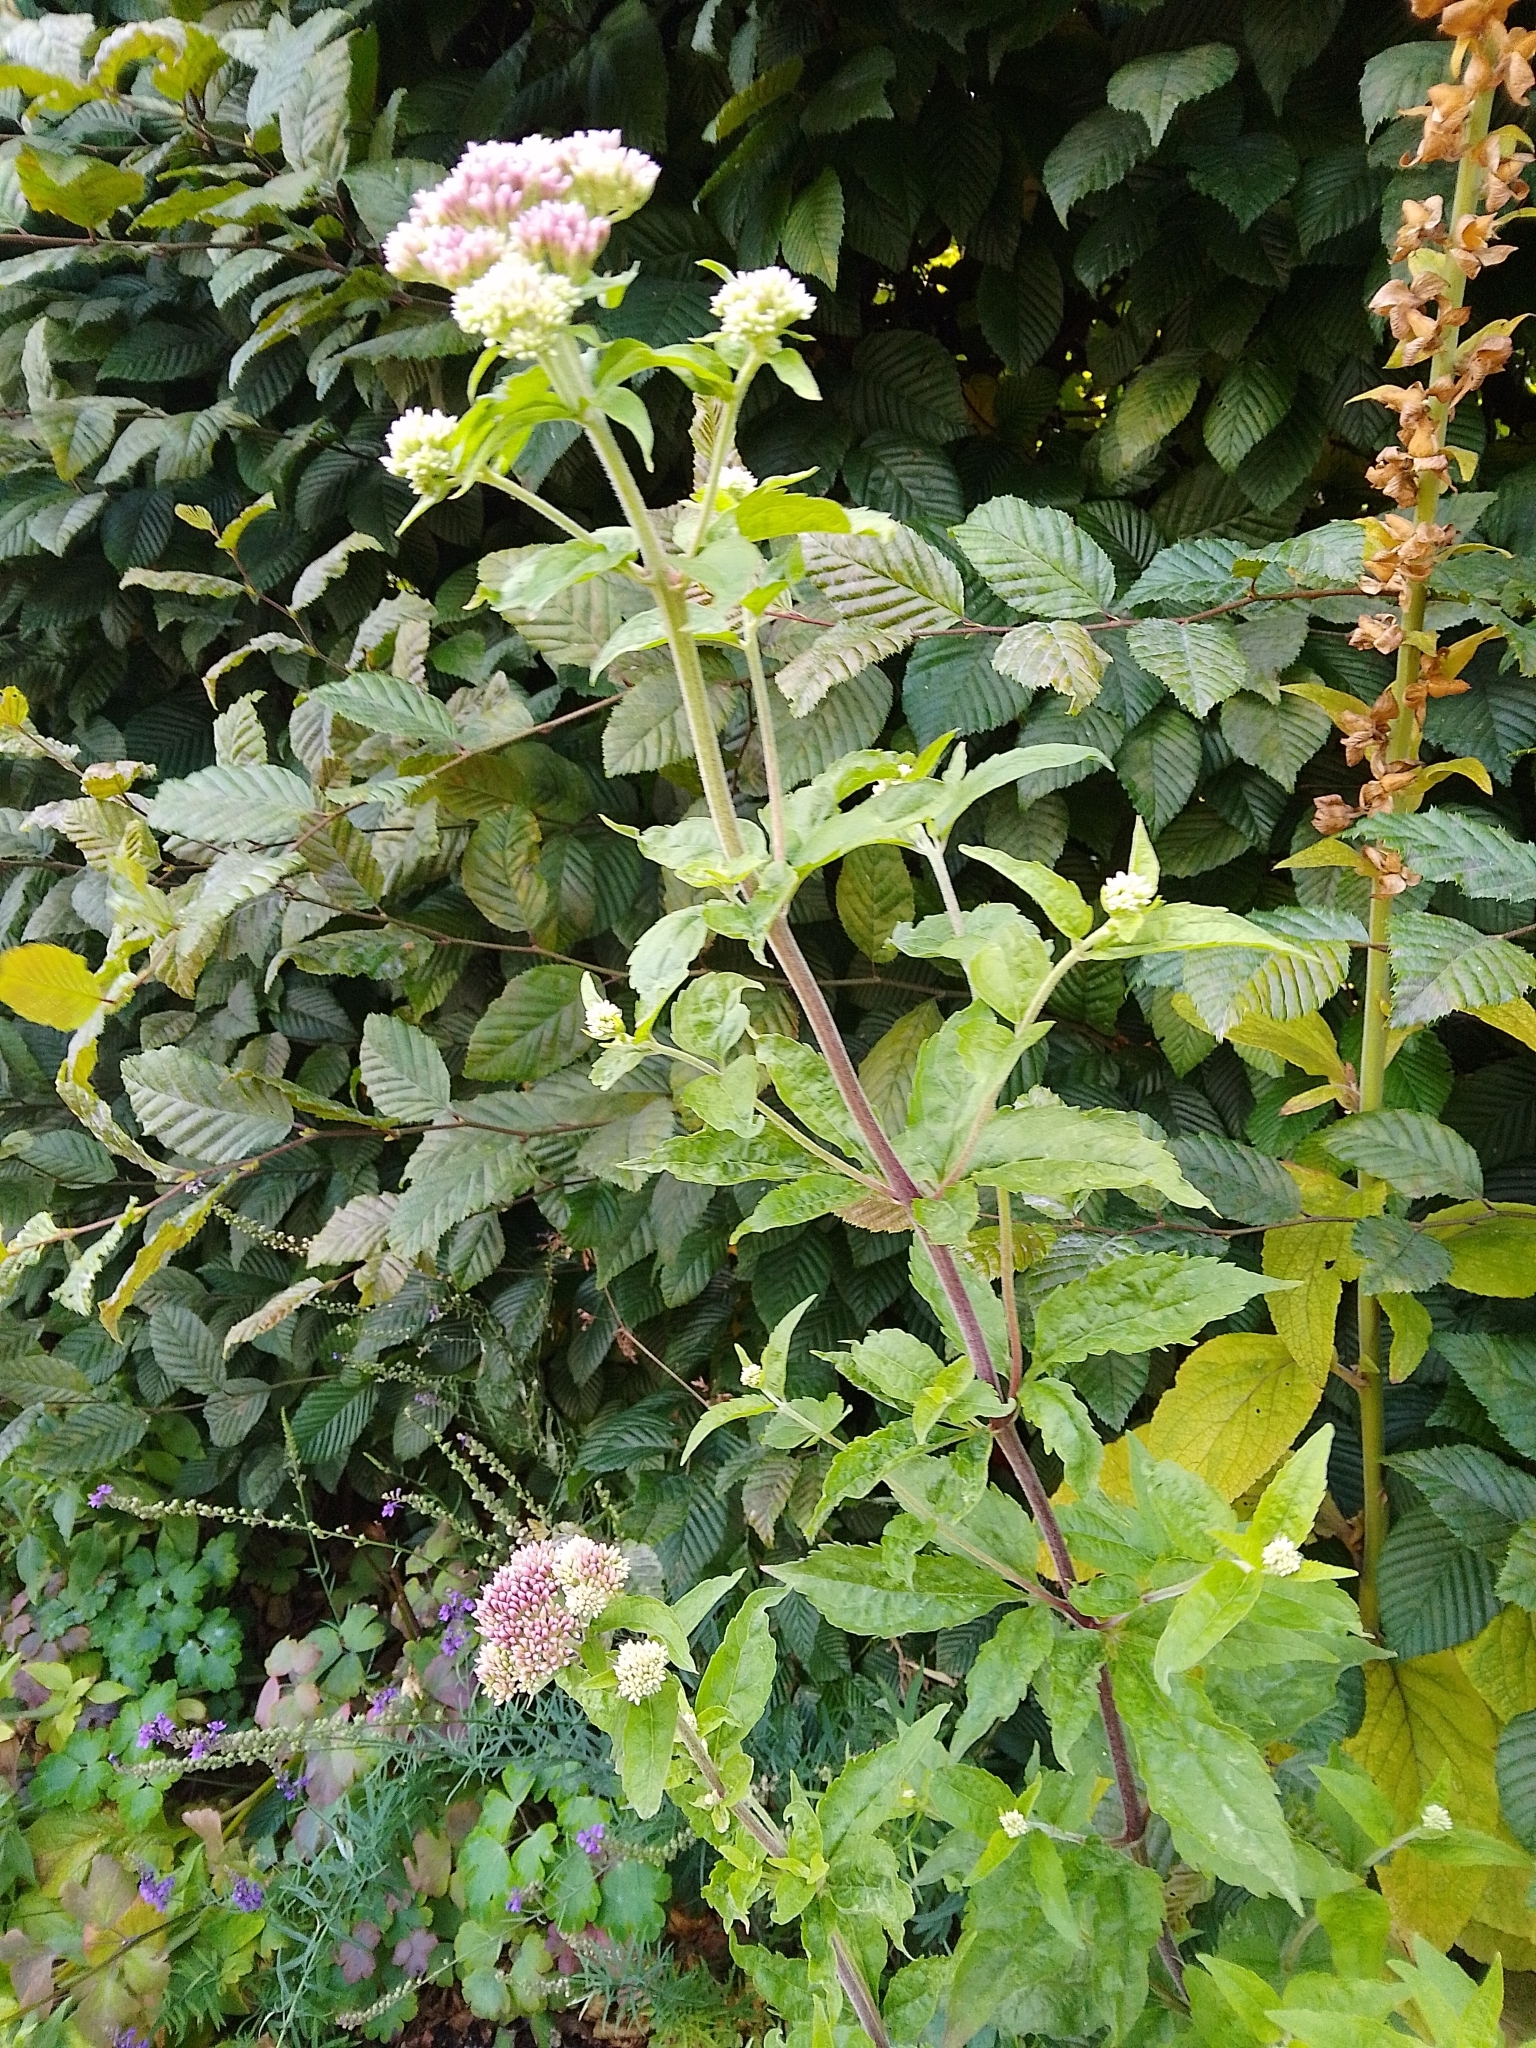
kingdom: Plantae
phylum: Tracheophyta
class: Magnoliopsida
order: Asterales
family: Asteraceae
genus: Eupatorium
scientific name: Eupatorium cannabinum
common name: Hemp-agrimony
